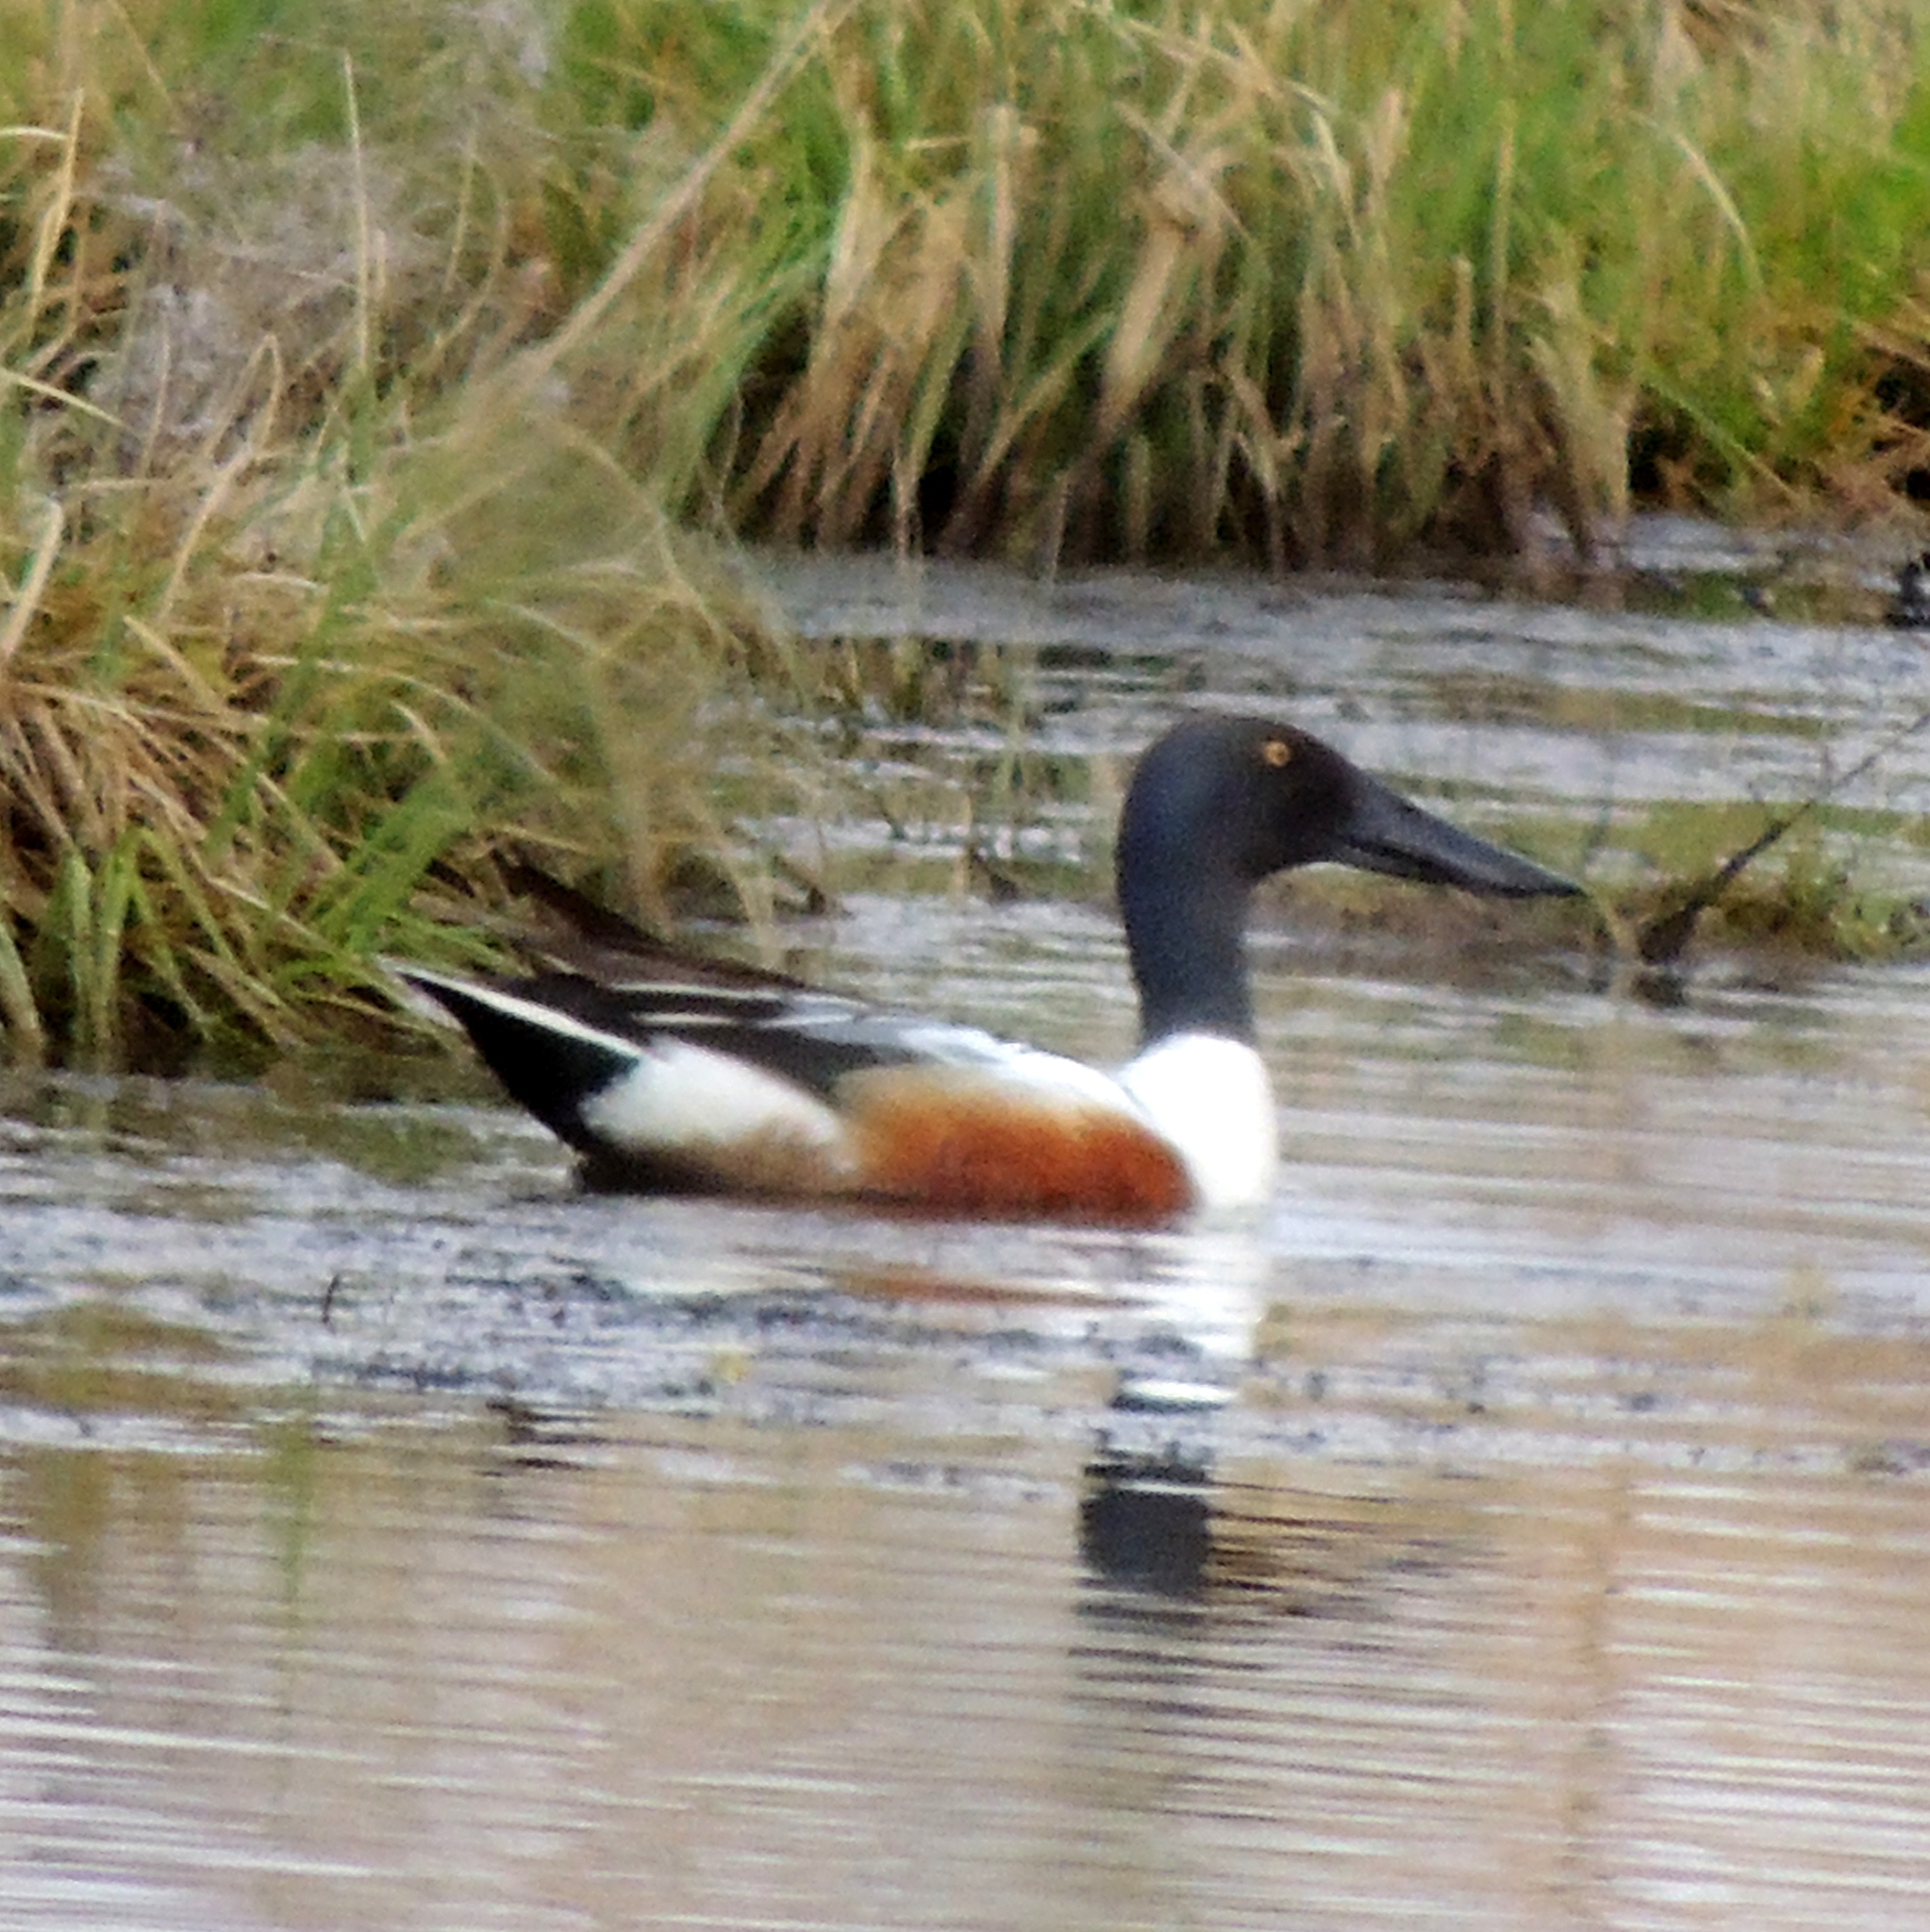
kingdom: Animalia
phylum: Chordata
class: Aves
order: Anseriformes
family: Anatidae
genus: Spatula
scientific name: Spatula clypeata
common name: Northern shoveler
